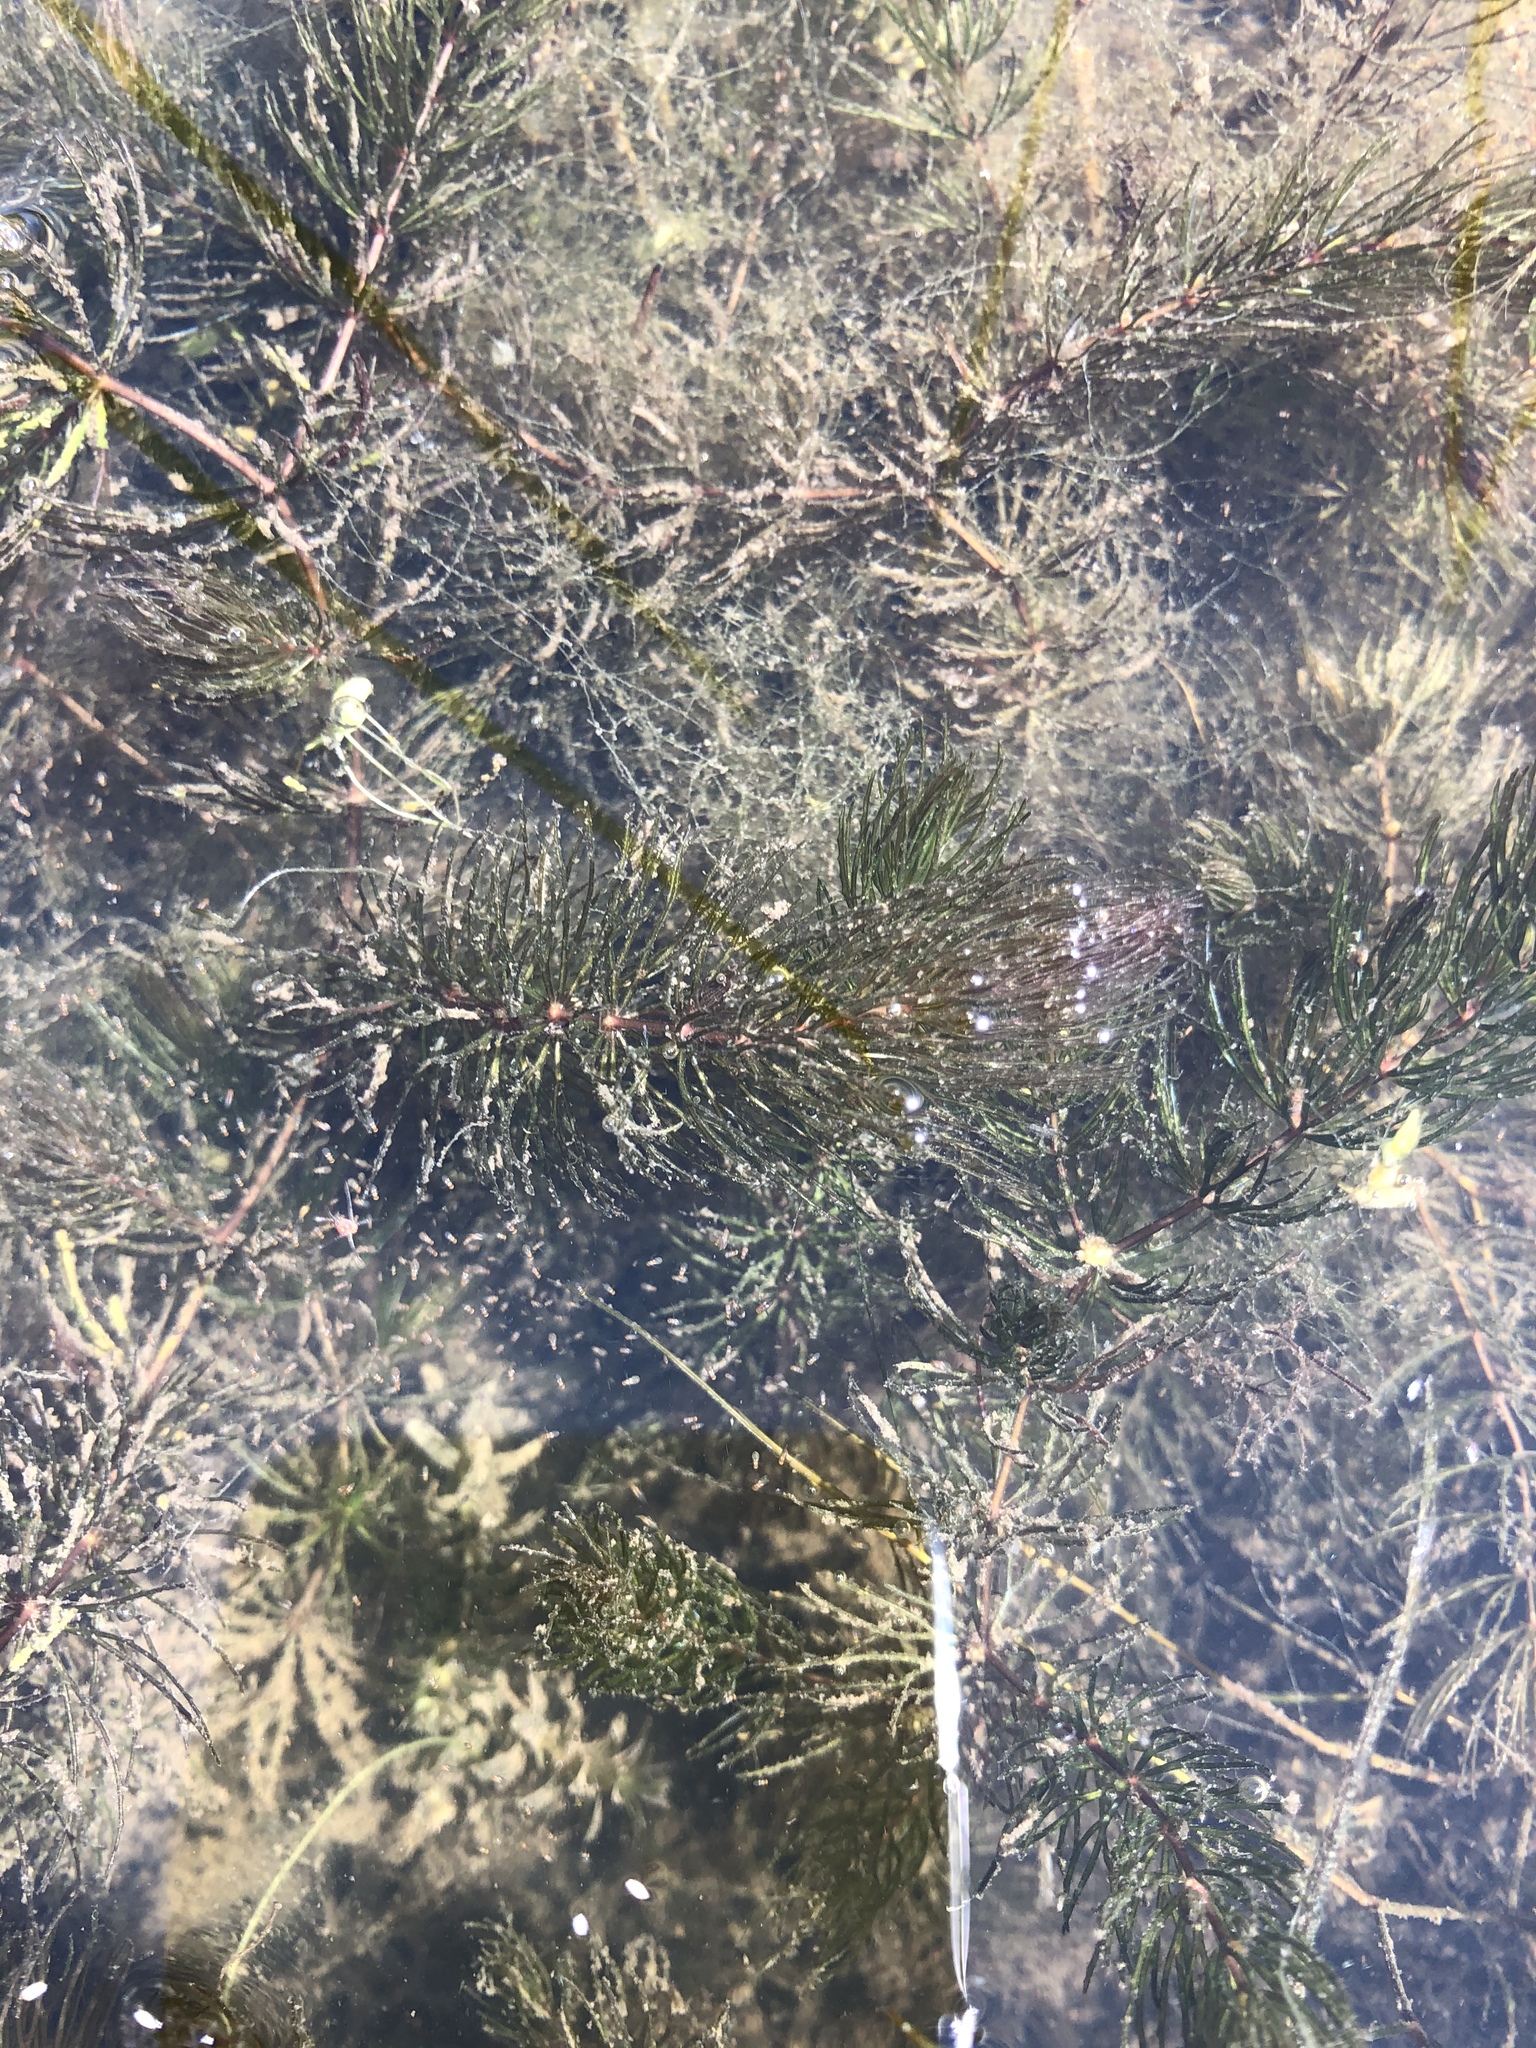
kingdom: Plantae
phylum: Tracheophyta
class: Magnoliopsida
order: Ceratophyllales
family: Ceratophyllaceae
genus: Ceratophyllum
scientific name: Ceratophyllum demersum
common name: Rigid hornwort
